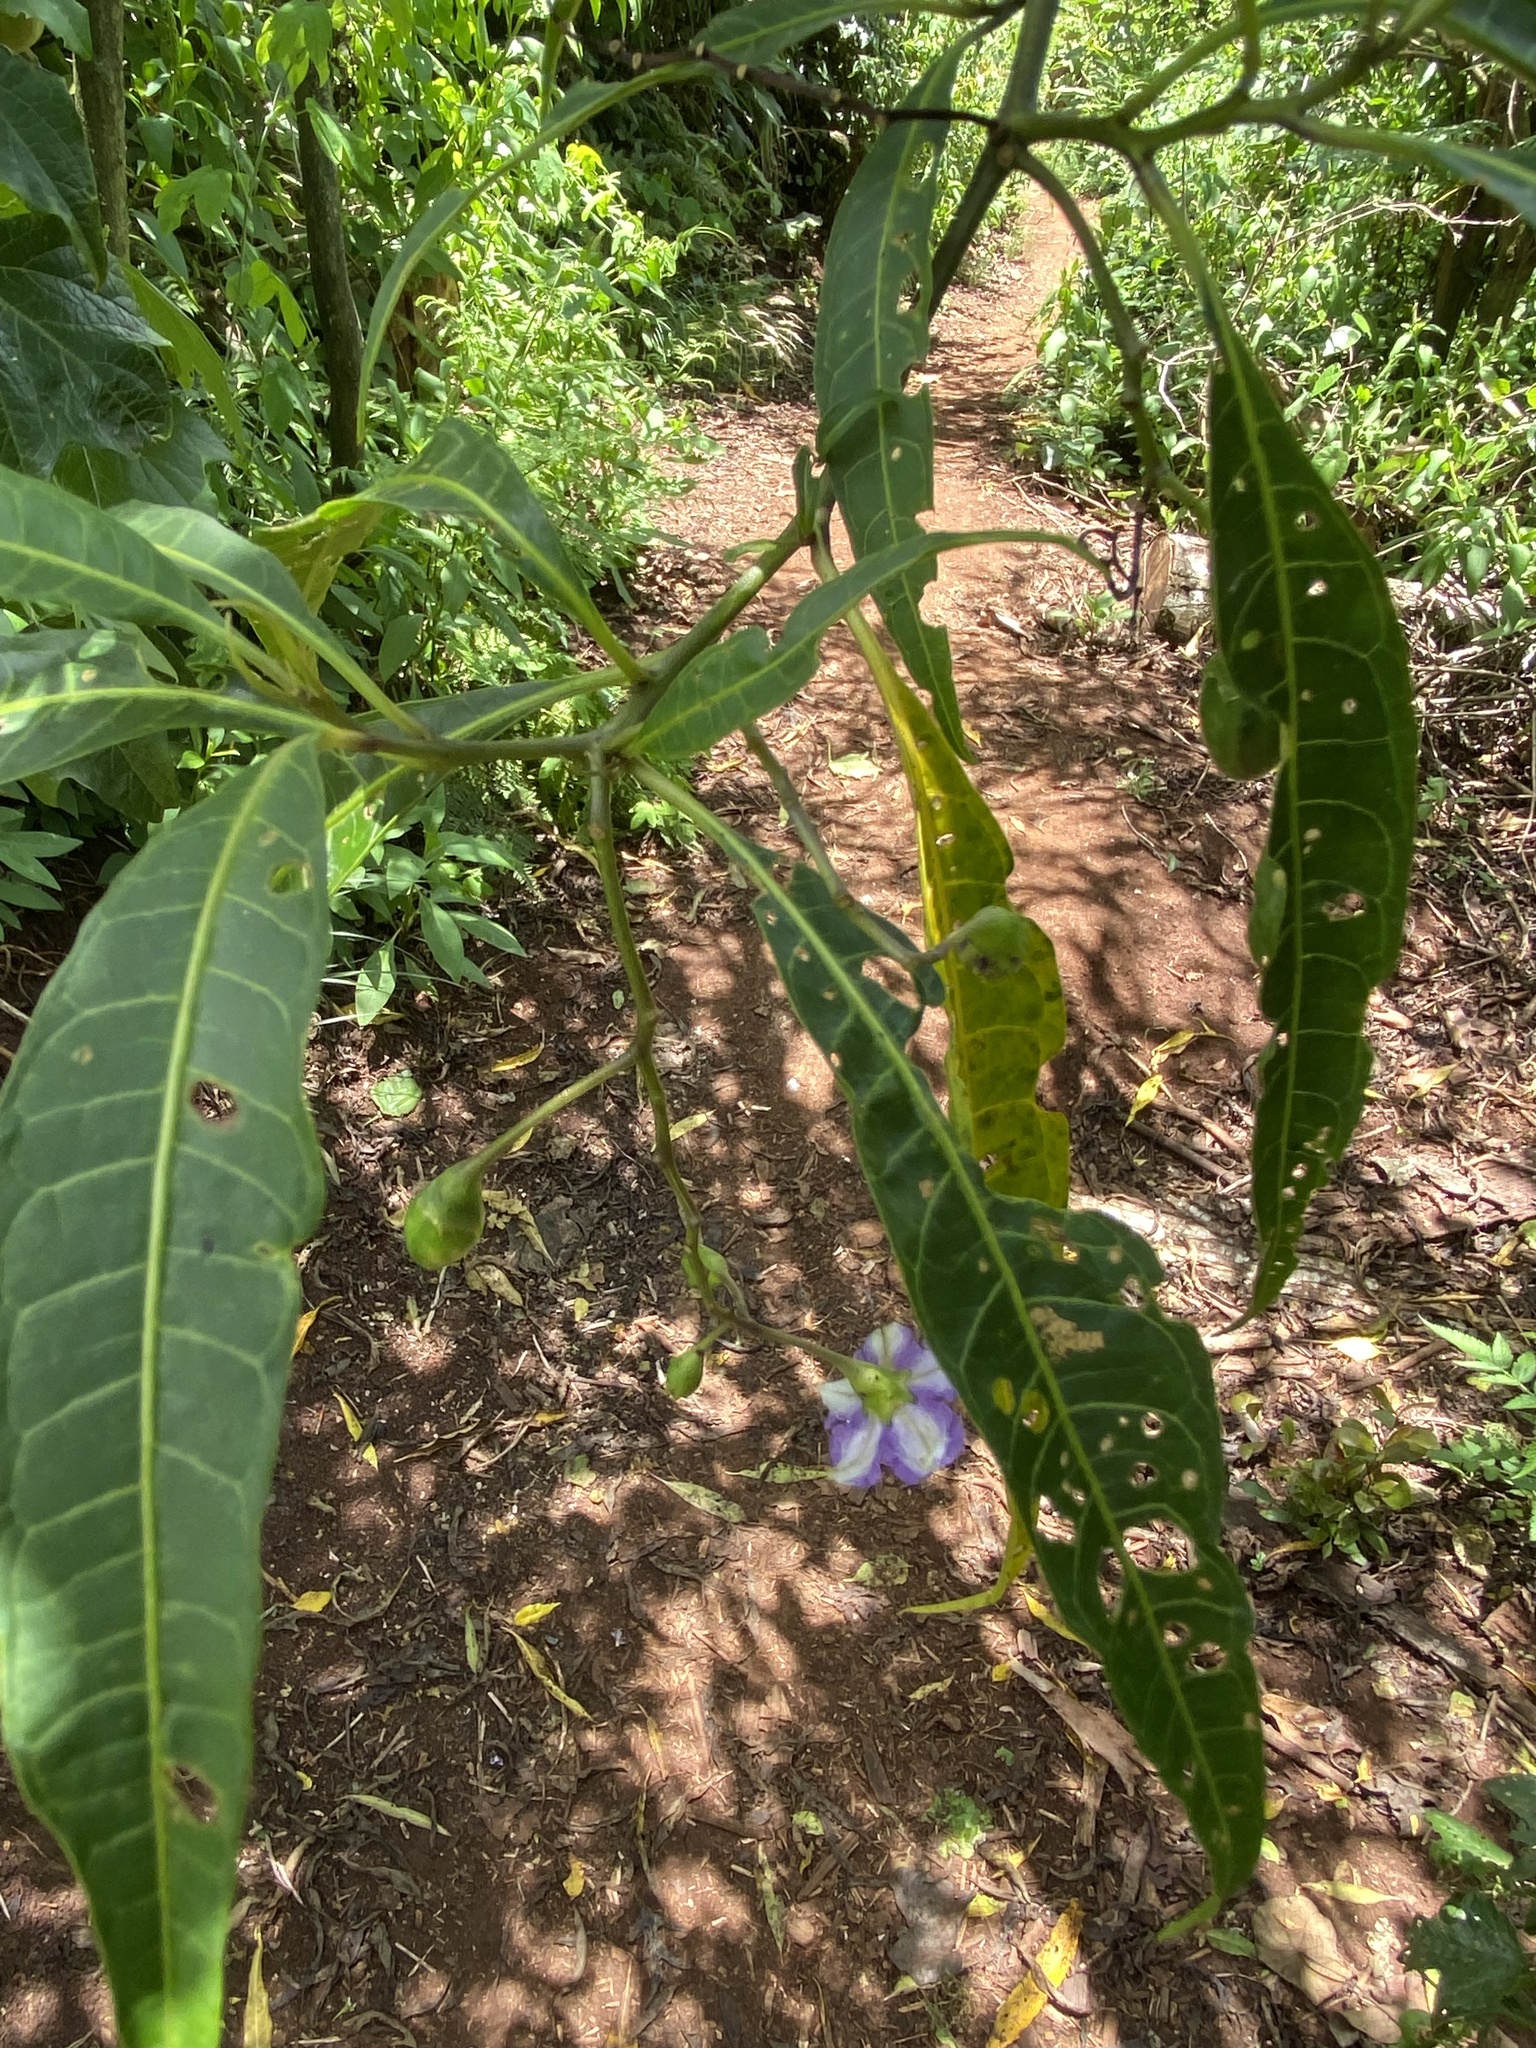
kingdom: Plantae
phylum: Tracheophyta
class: Magnoliopsida
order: Solanales
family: Solanaceae
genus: Solanum
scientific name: Solanum aviculare
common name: New zealand nightshade
